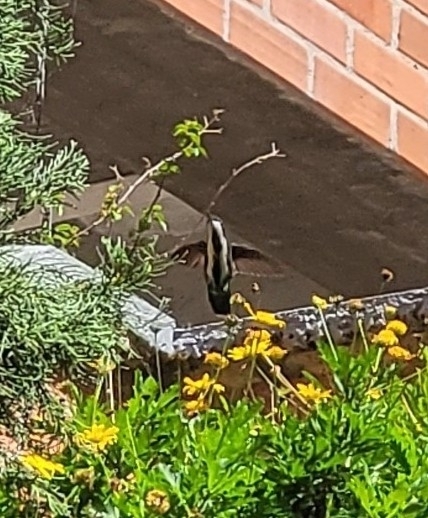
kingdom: Animalia
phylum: Chordata
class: Aves
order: Apodiformes
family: Trochilidae
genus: Anthracothorax
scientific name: Anthracothorax nigricollis
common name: Black-throated mango
